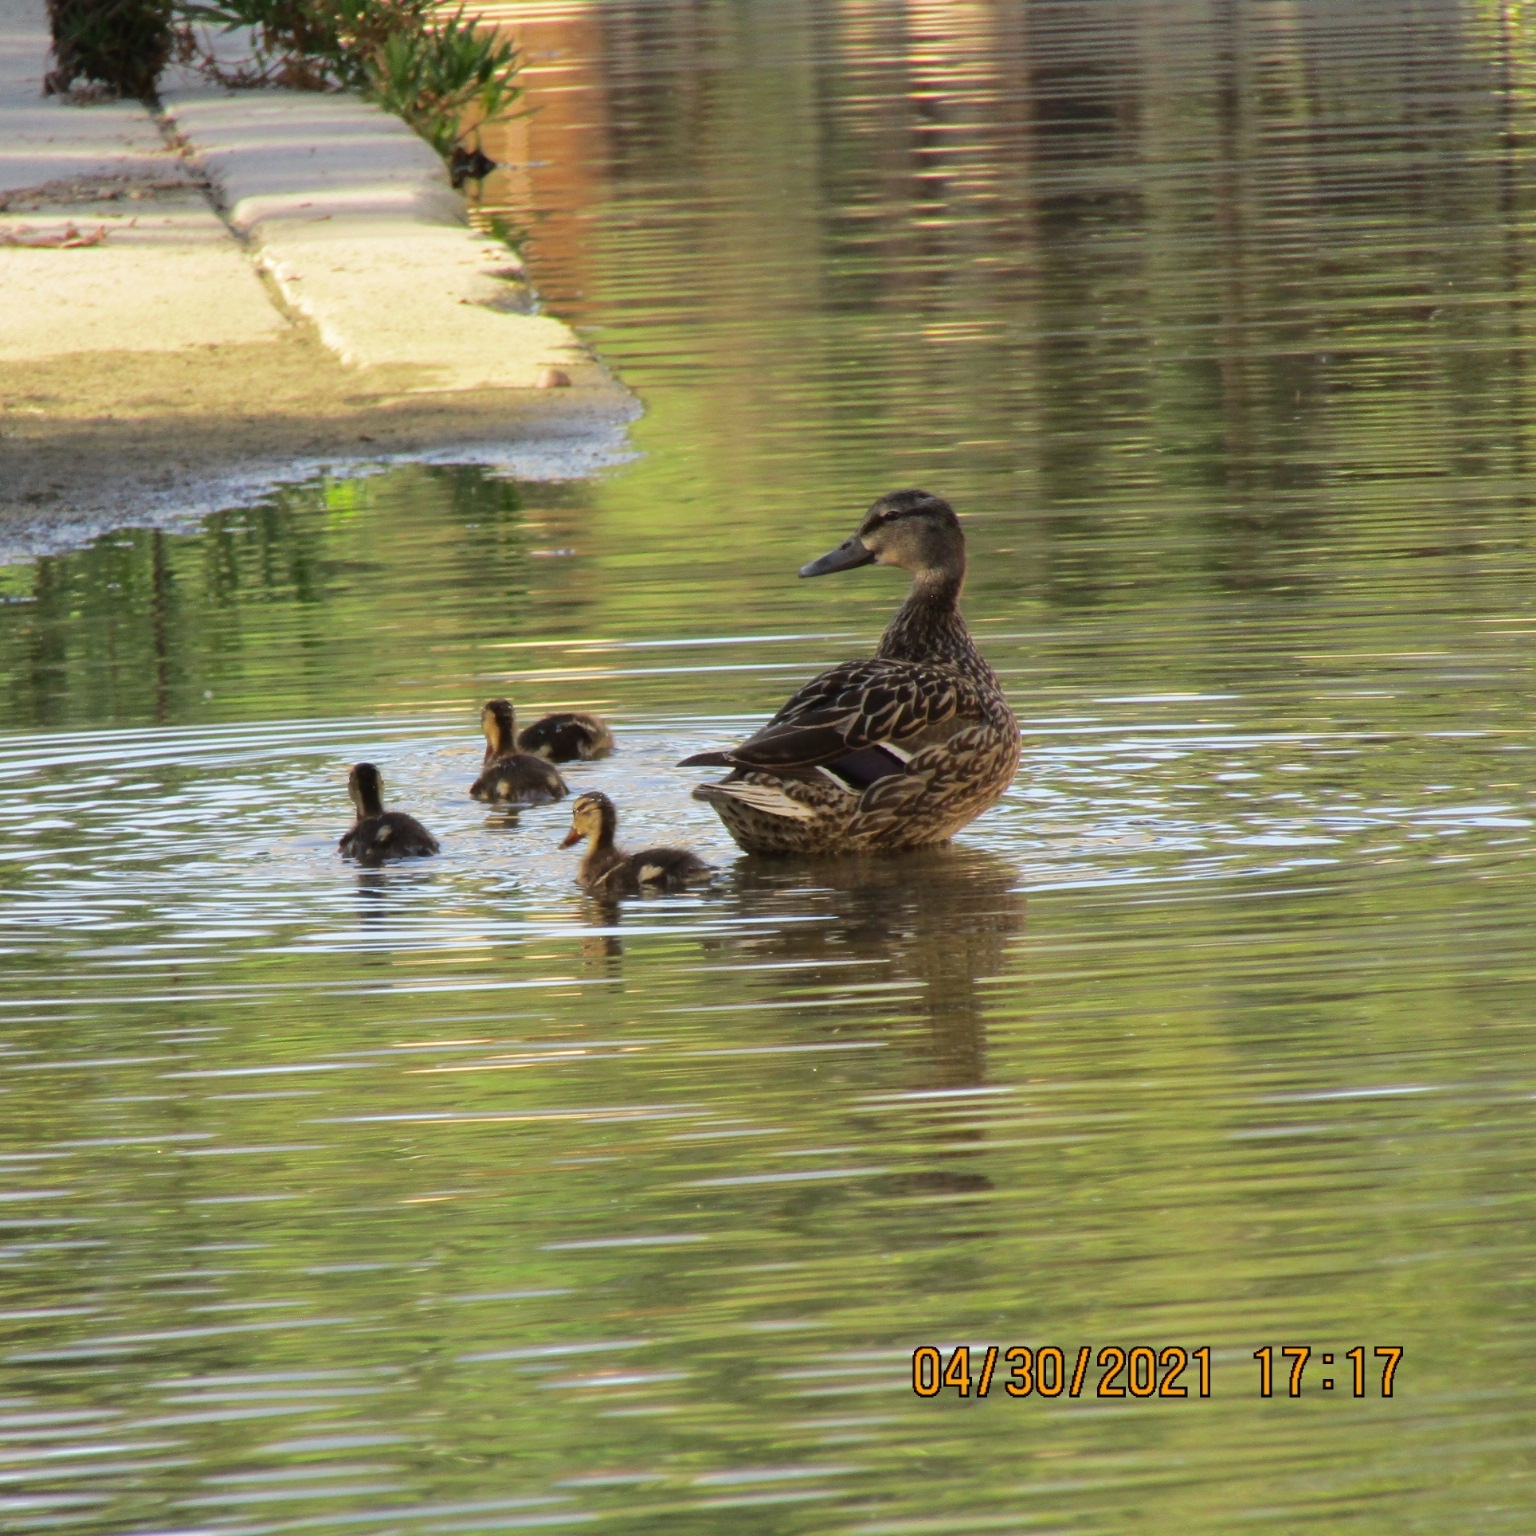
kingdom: Animalia
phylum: Chordata
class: Aves
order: Anseriformes
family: Anatidae
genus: Anas
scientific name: Anas platyrhynchos
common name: Mallard
